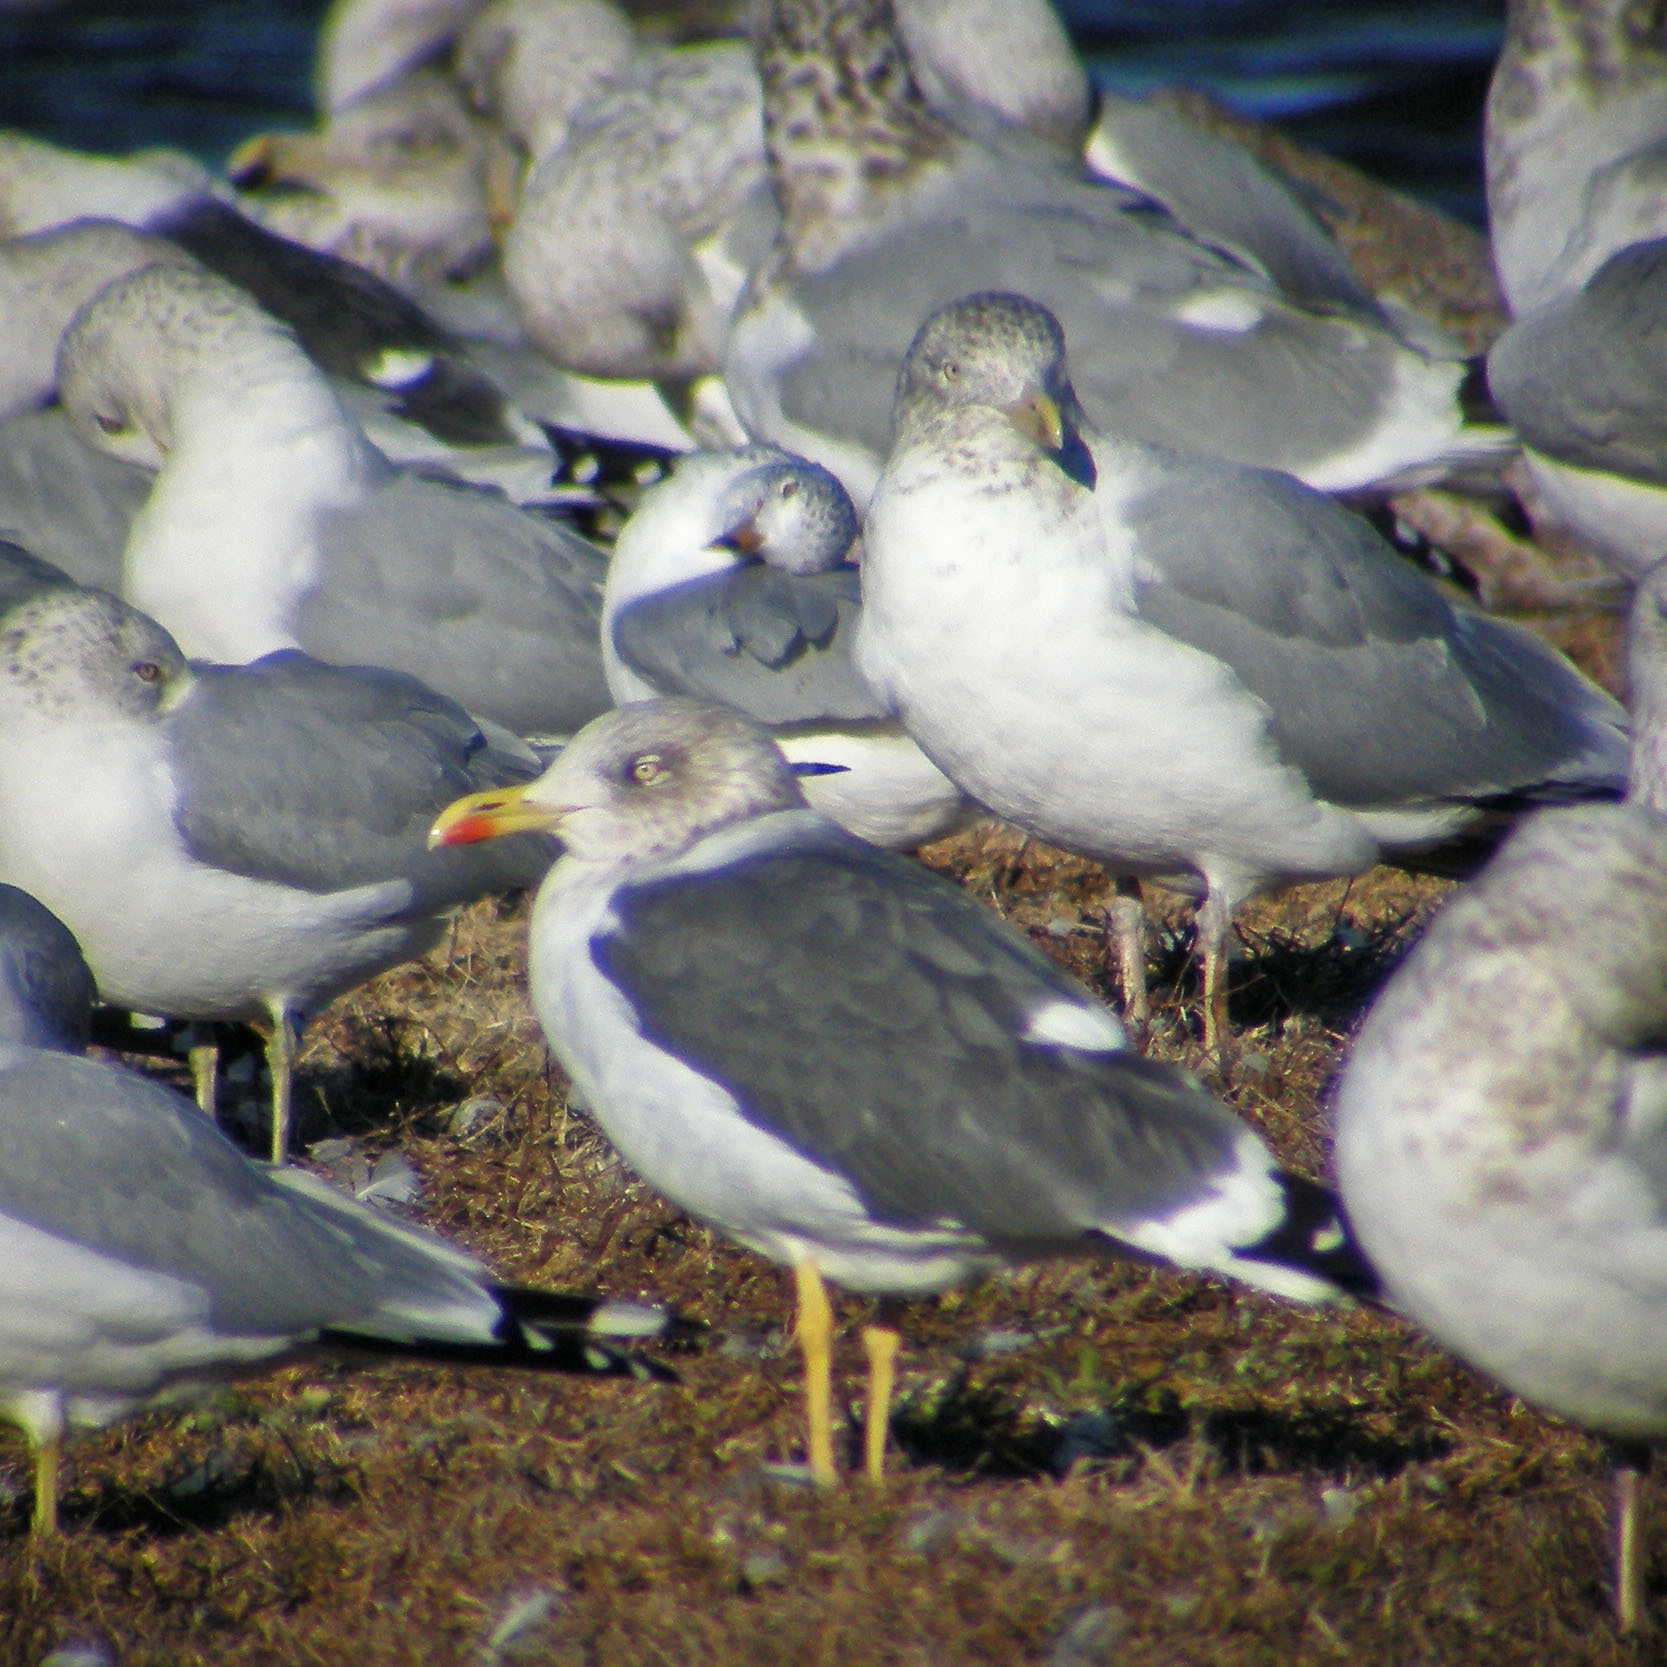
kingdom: Animalia
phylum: Chordata
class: Aves
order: Charadriiformes
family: Laridae
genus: Larus
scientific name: Larus fuscus
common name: Lesser black-backed gull
